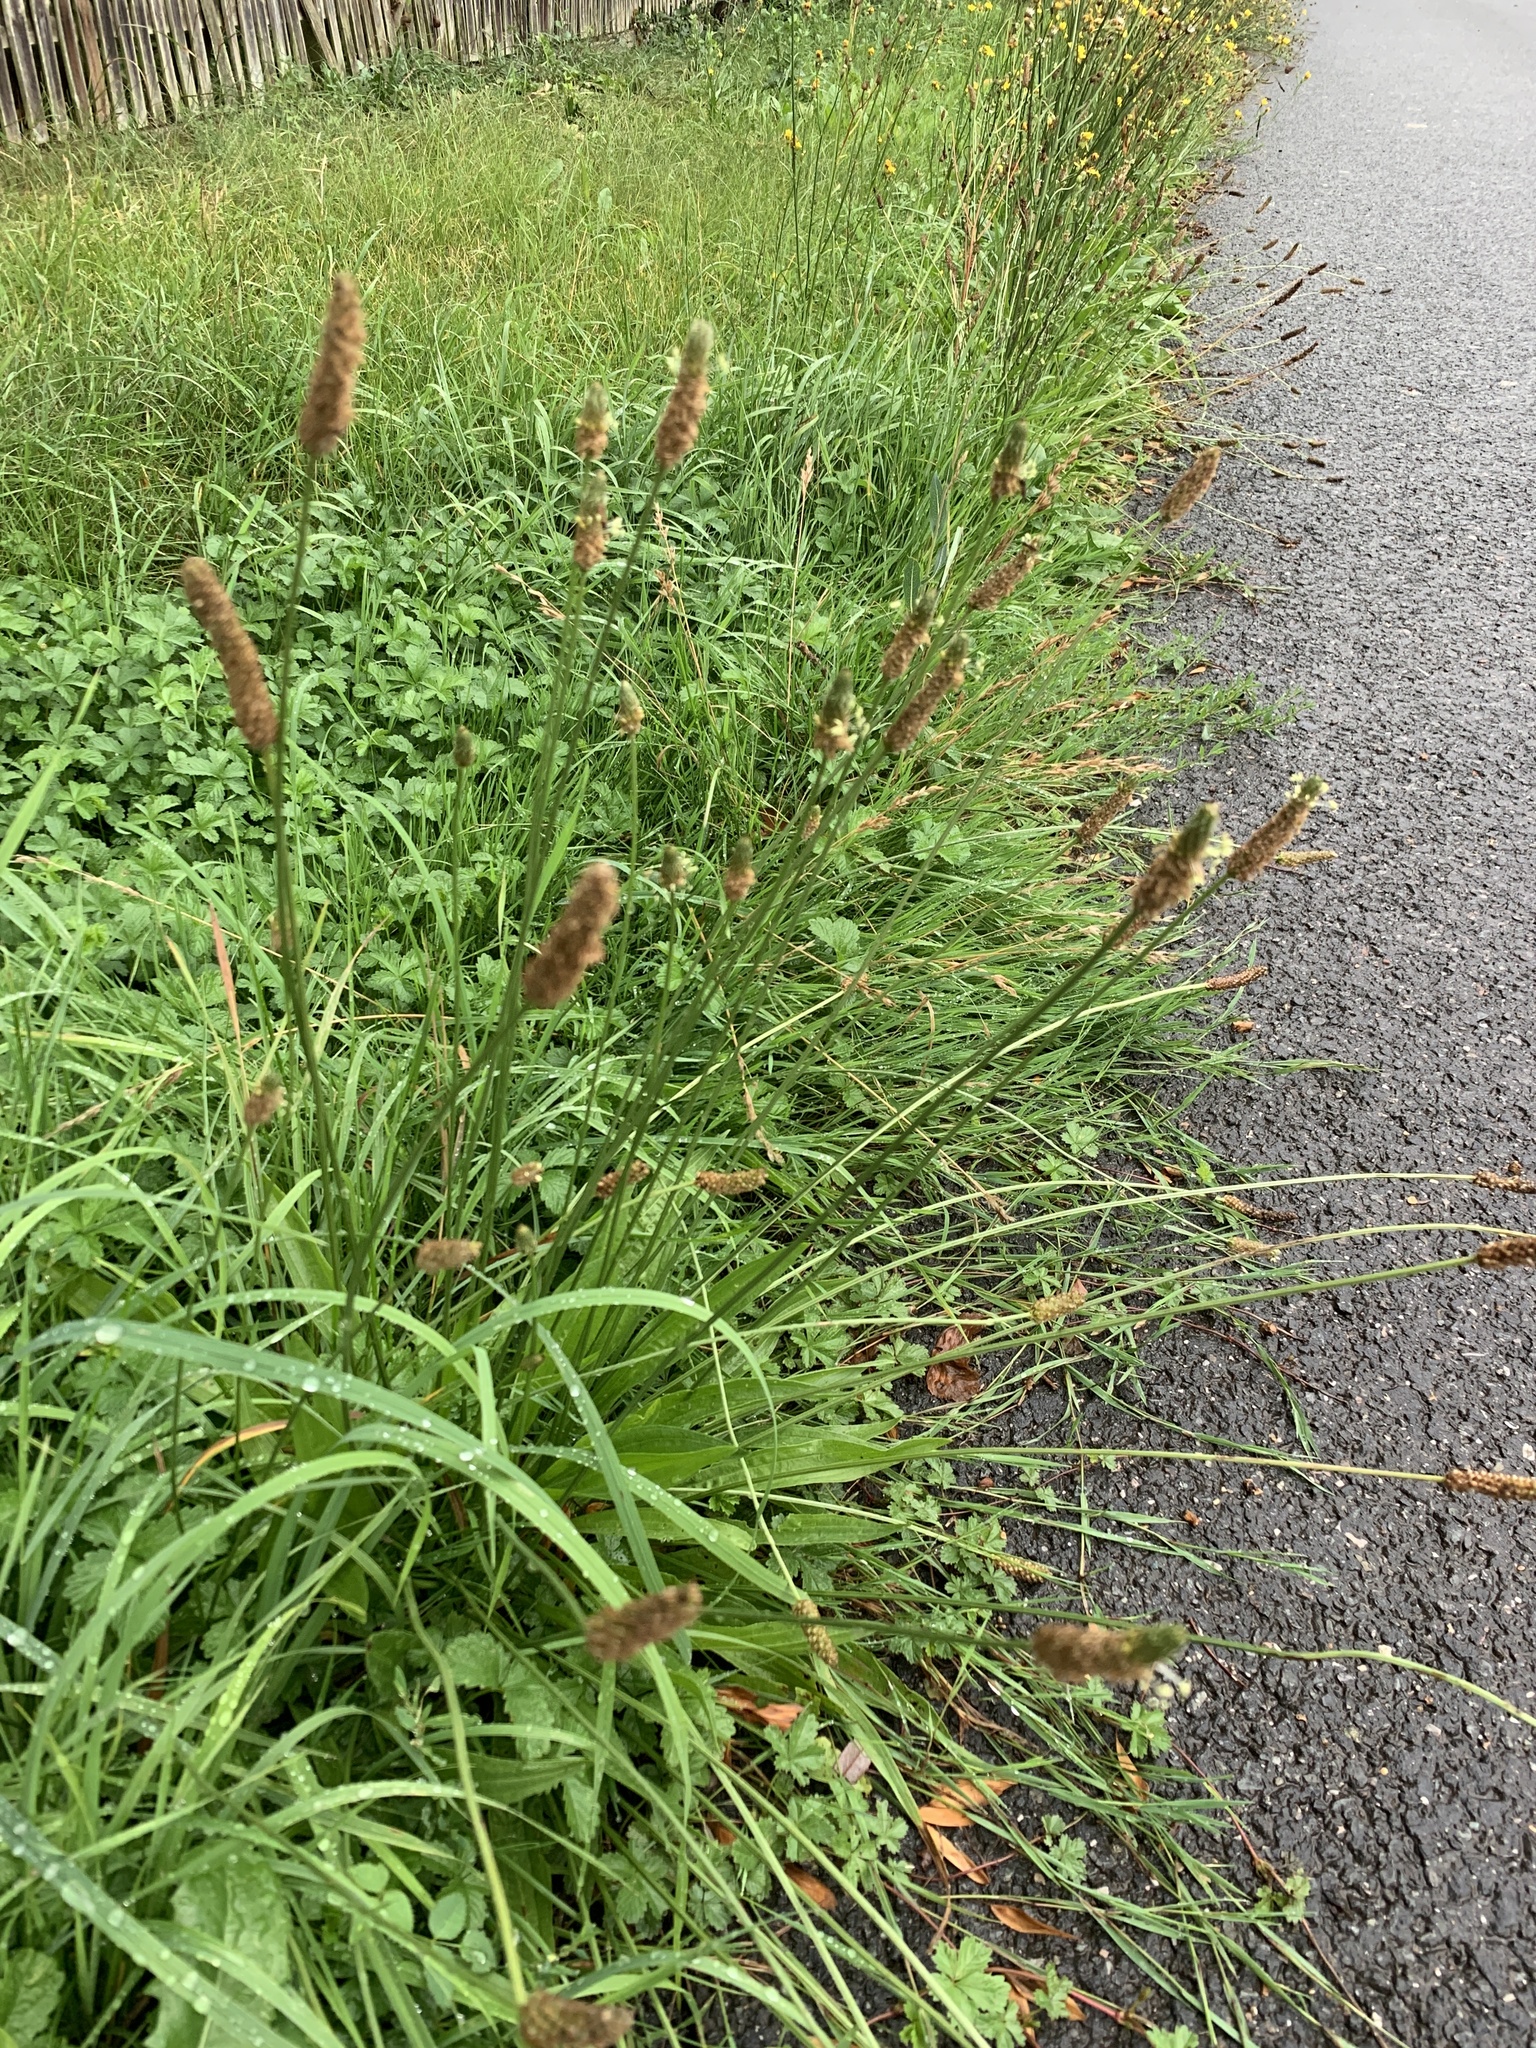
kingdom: Plantae
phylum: Tracheophyta
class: Magnoliopsida
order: Lamiales
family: Plantaginaceae
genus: Plantago
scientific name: Plantago lanceolata
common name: Ribwort plantain
